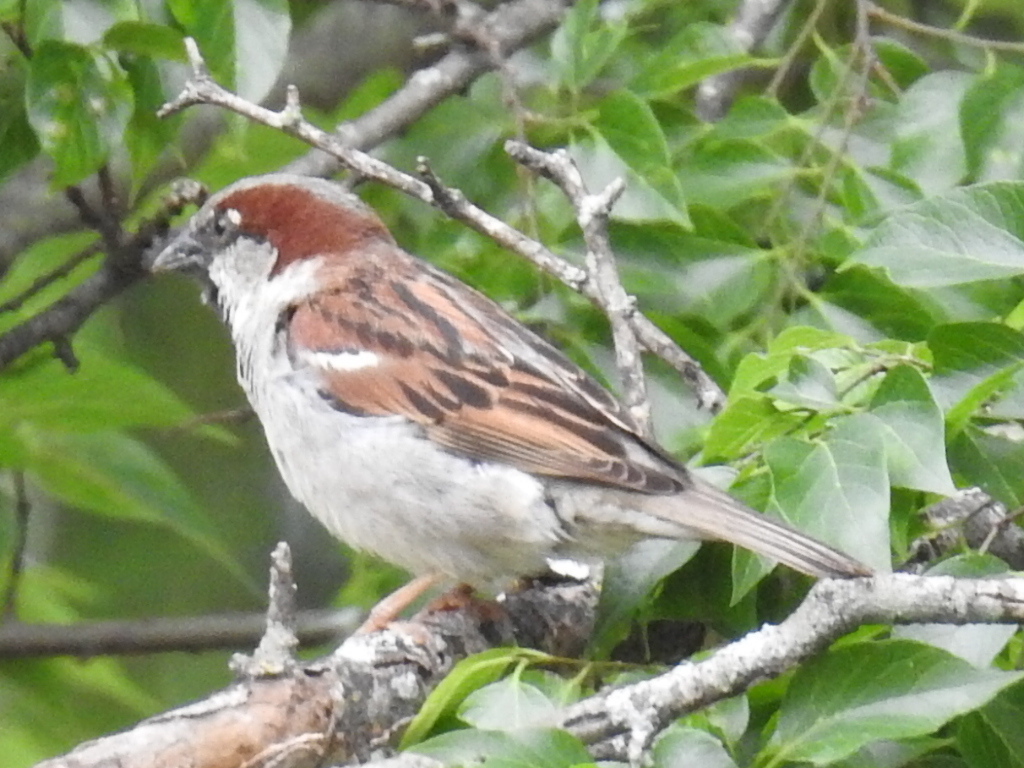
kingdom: Animalia
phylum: Chordata
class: Aves
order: Passeriformes
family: Passeridae
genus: Passer
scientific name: Passer domesticus
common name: House sparrow
